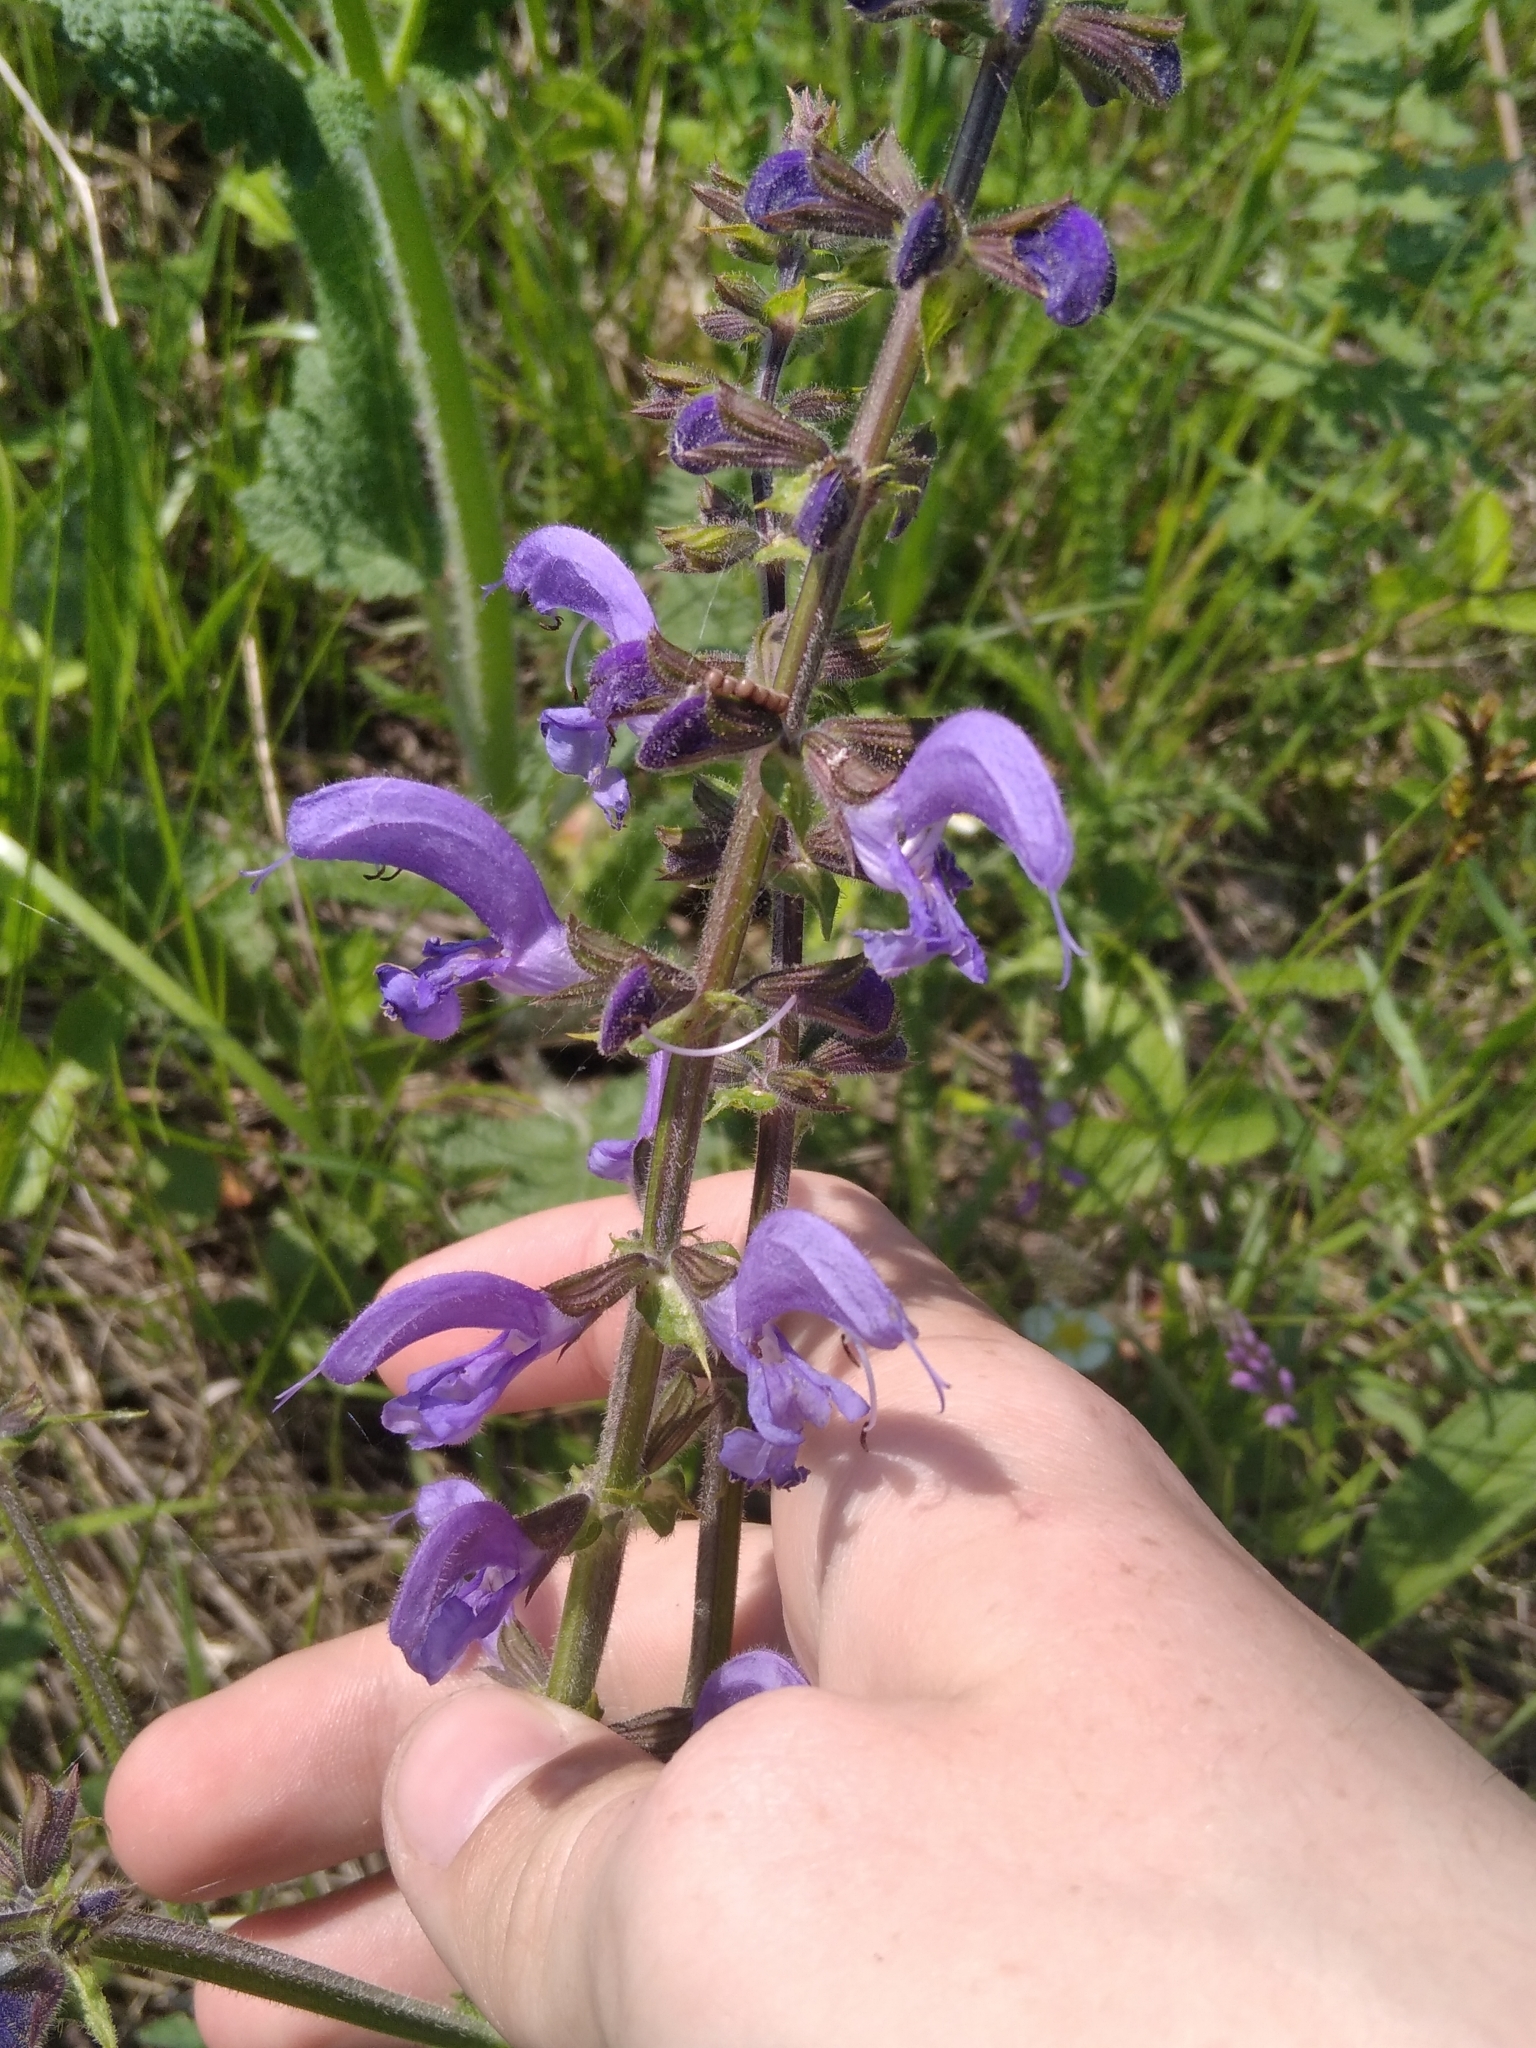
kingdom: Plantae
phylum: Tracheophyta
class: Magnoliopsida
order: Lamiales
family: Lamiaceae
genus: Salvia
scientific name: Salvia pratensis
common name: Meadow sage
